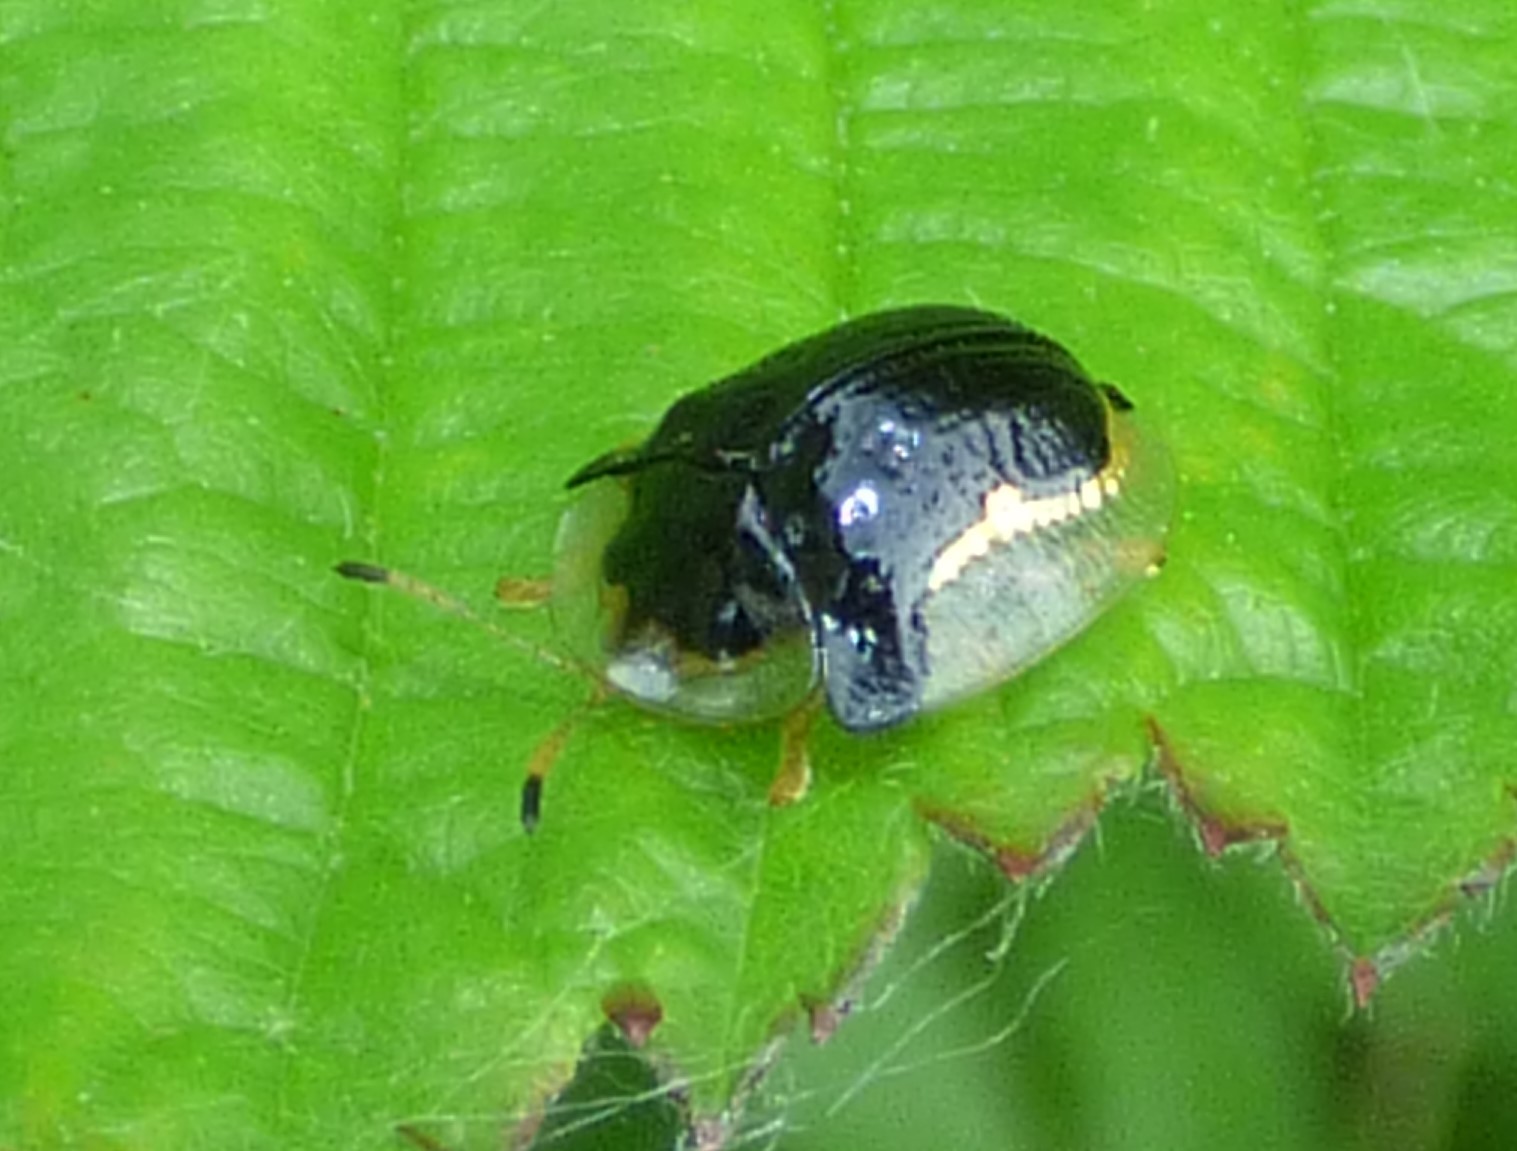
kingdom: Animalia
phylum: Arthropoda
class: Insecta
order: Coleoptera
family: Chrysomelidae
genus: Deloyala
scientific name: Deloyala guttata
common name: Mottled tortoise beetle
